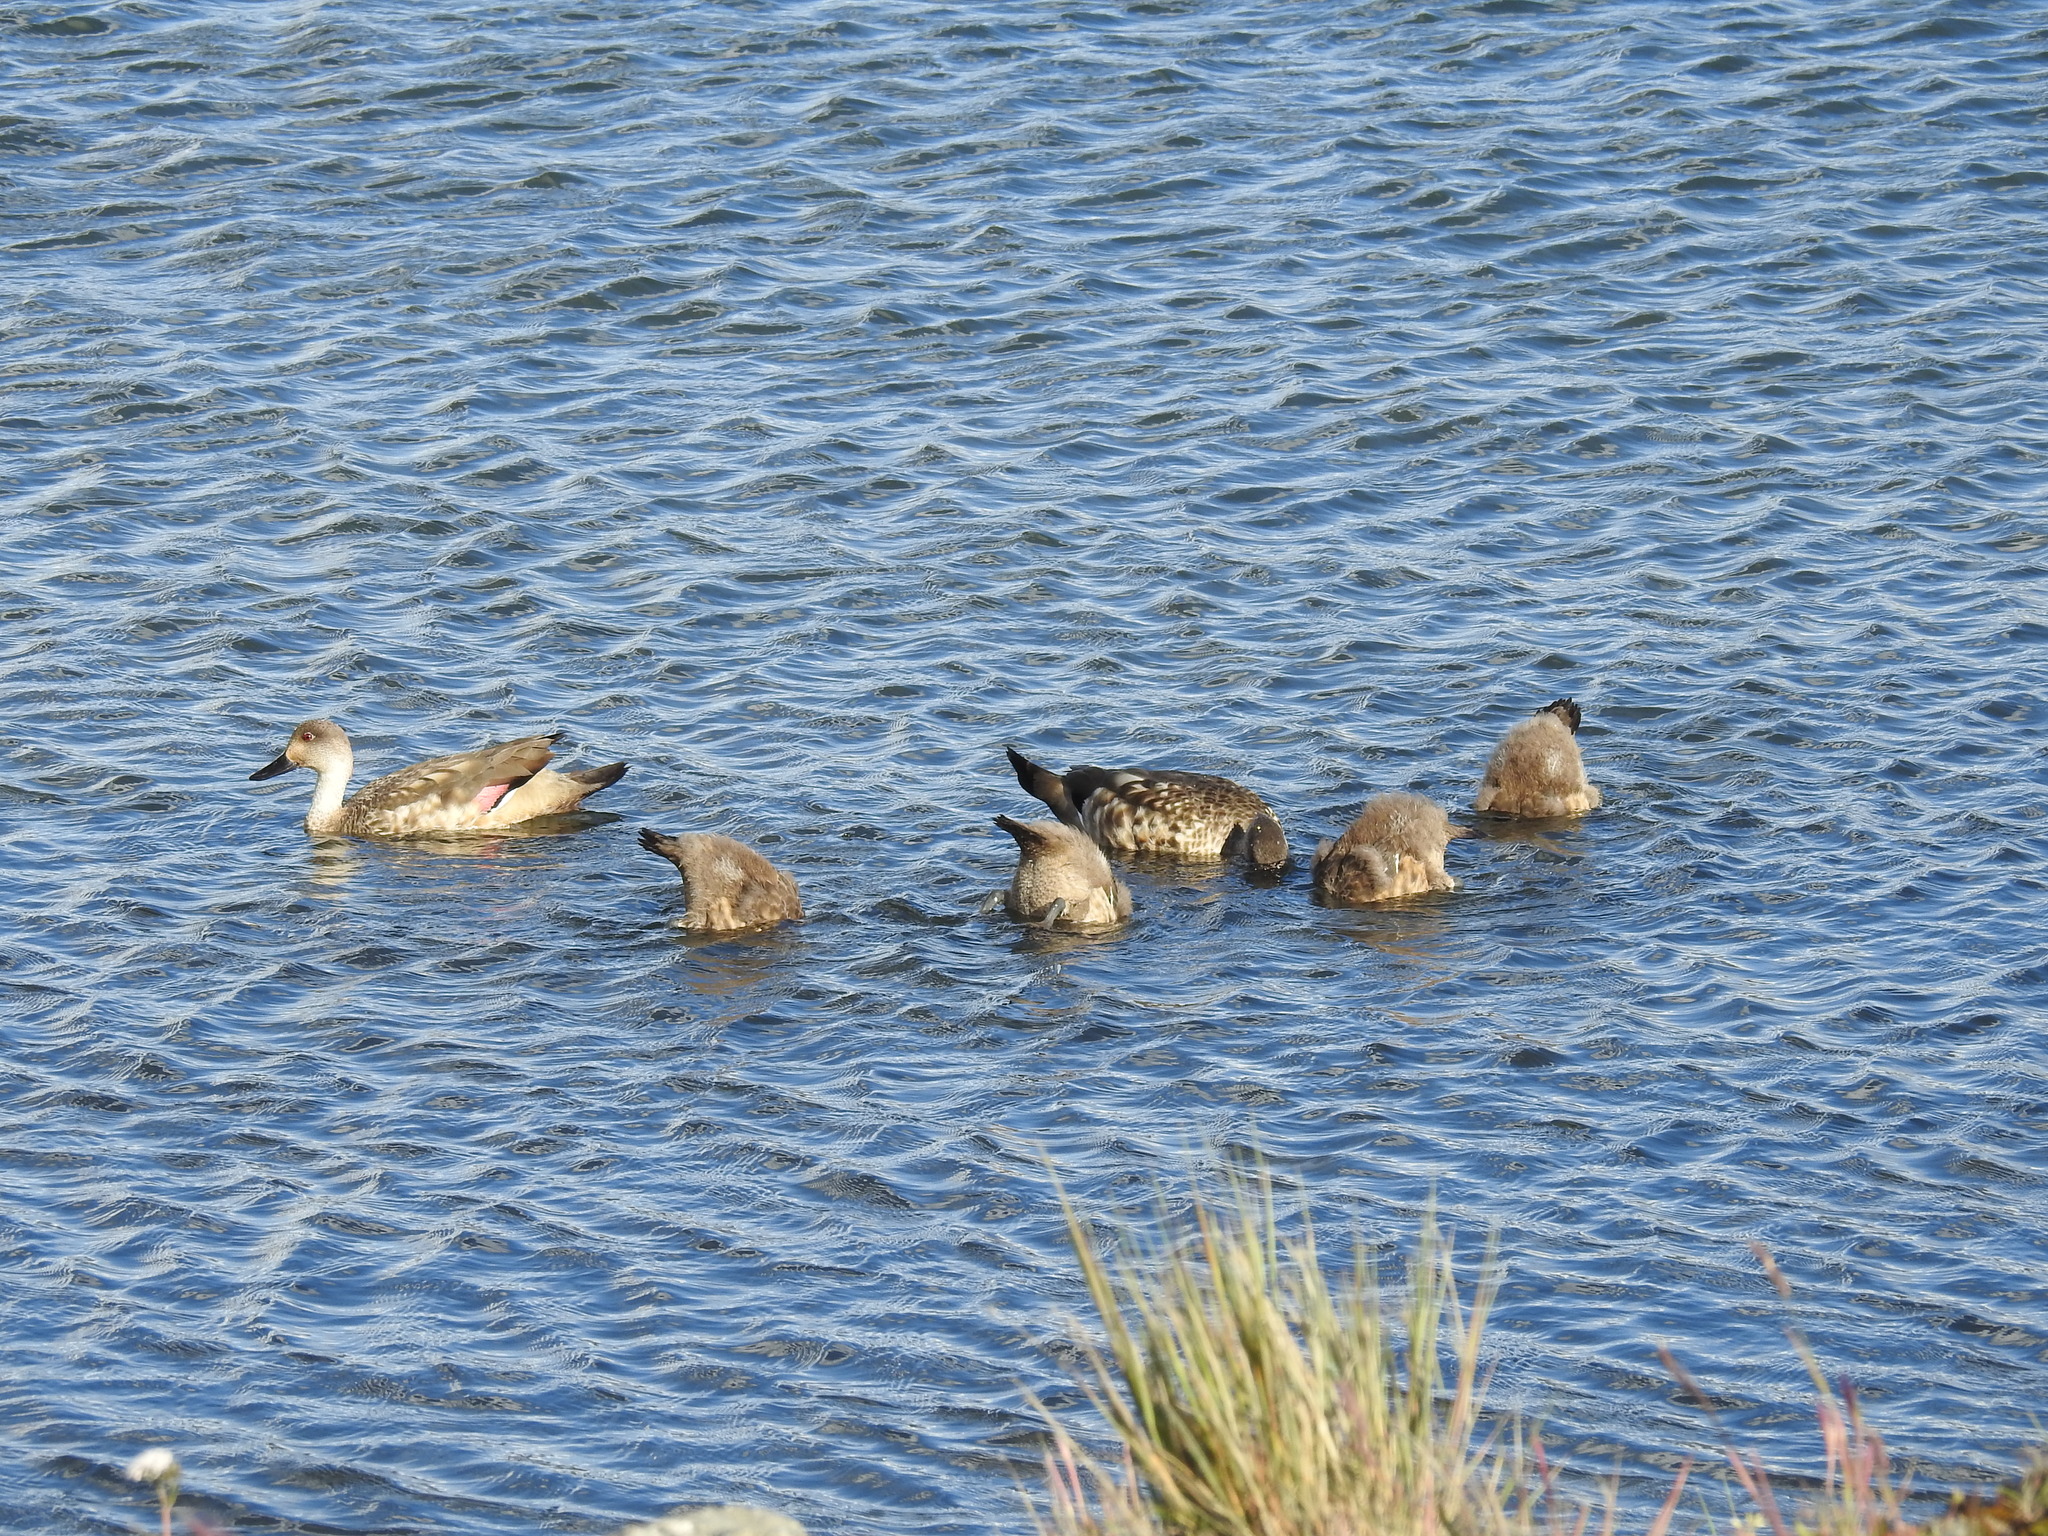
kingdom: Animalia
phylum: Chordata
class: Aves
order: Anseriformes
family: Anatidae
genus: Lophonetta
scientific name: Lophonetta specularioides
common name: Crested duck
